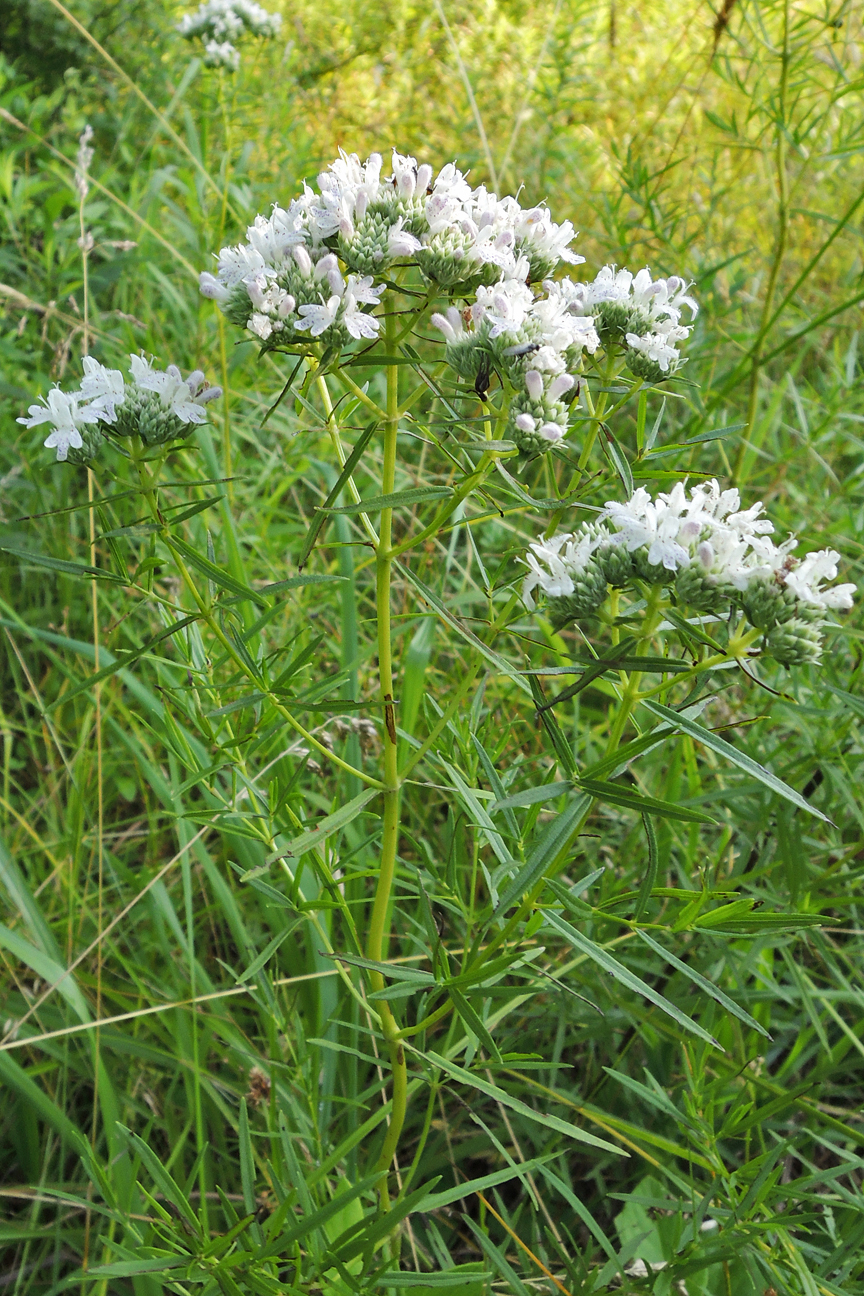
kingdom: Plantae
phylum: Tracheophyta
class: Magnoliopsida
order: Lamiales
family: Lamiaceae
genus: Pycnanthemum
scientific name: Pycnanthemum tenuifolium
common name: Narrow-leaf mountain-mint
